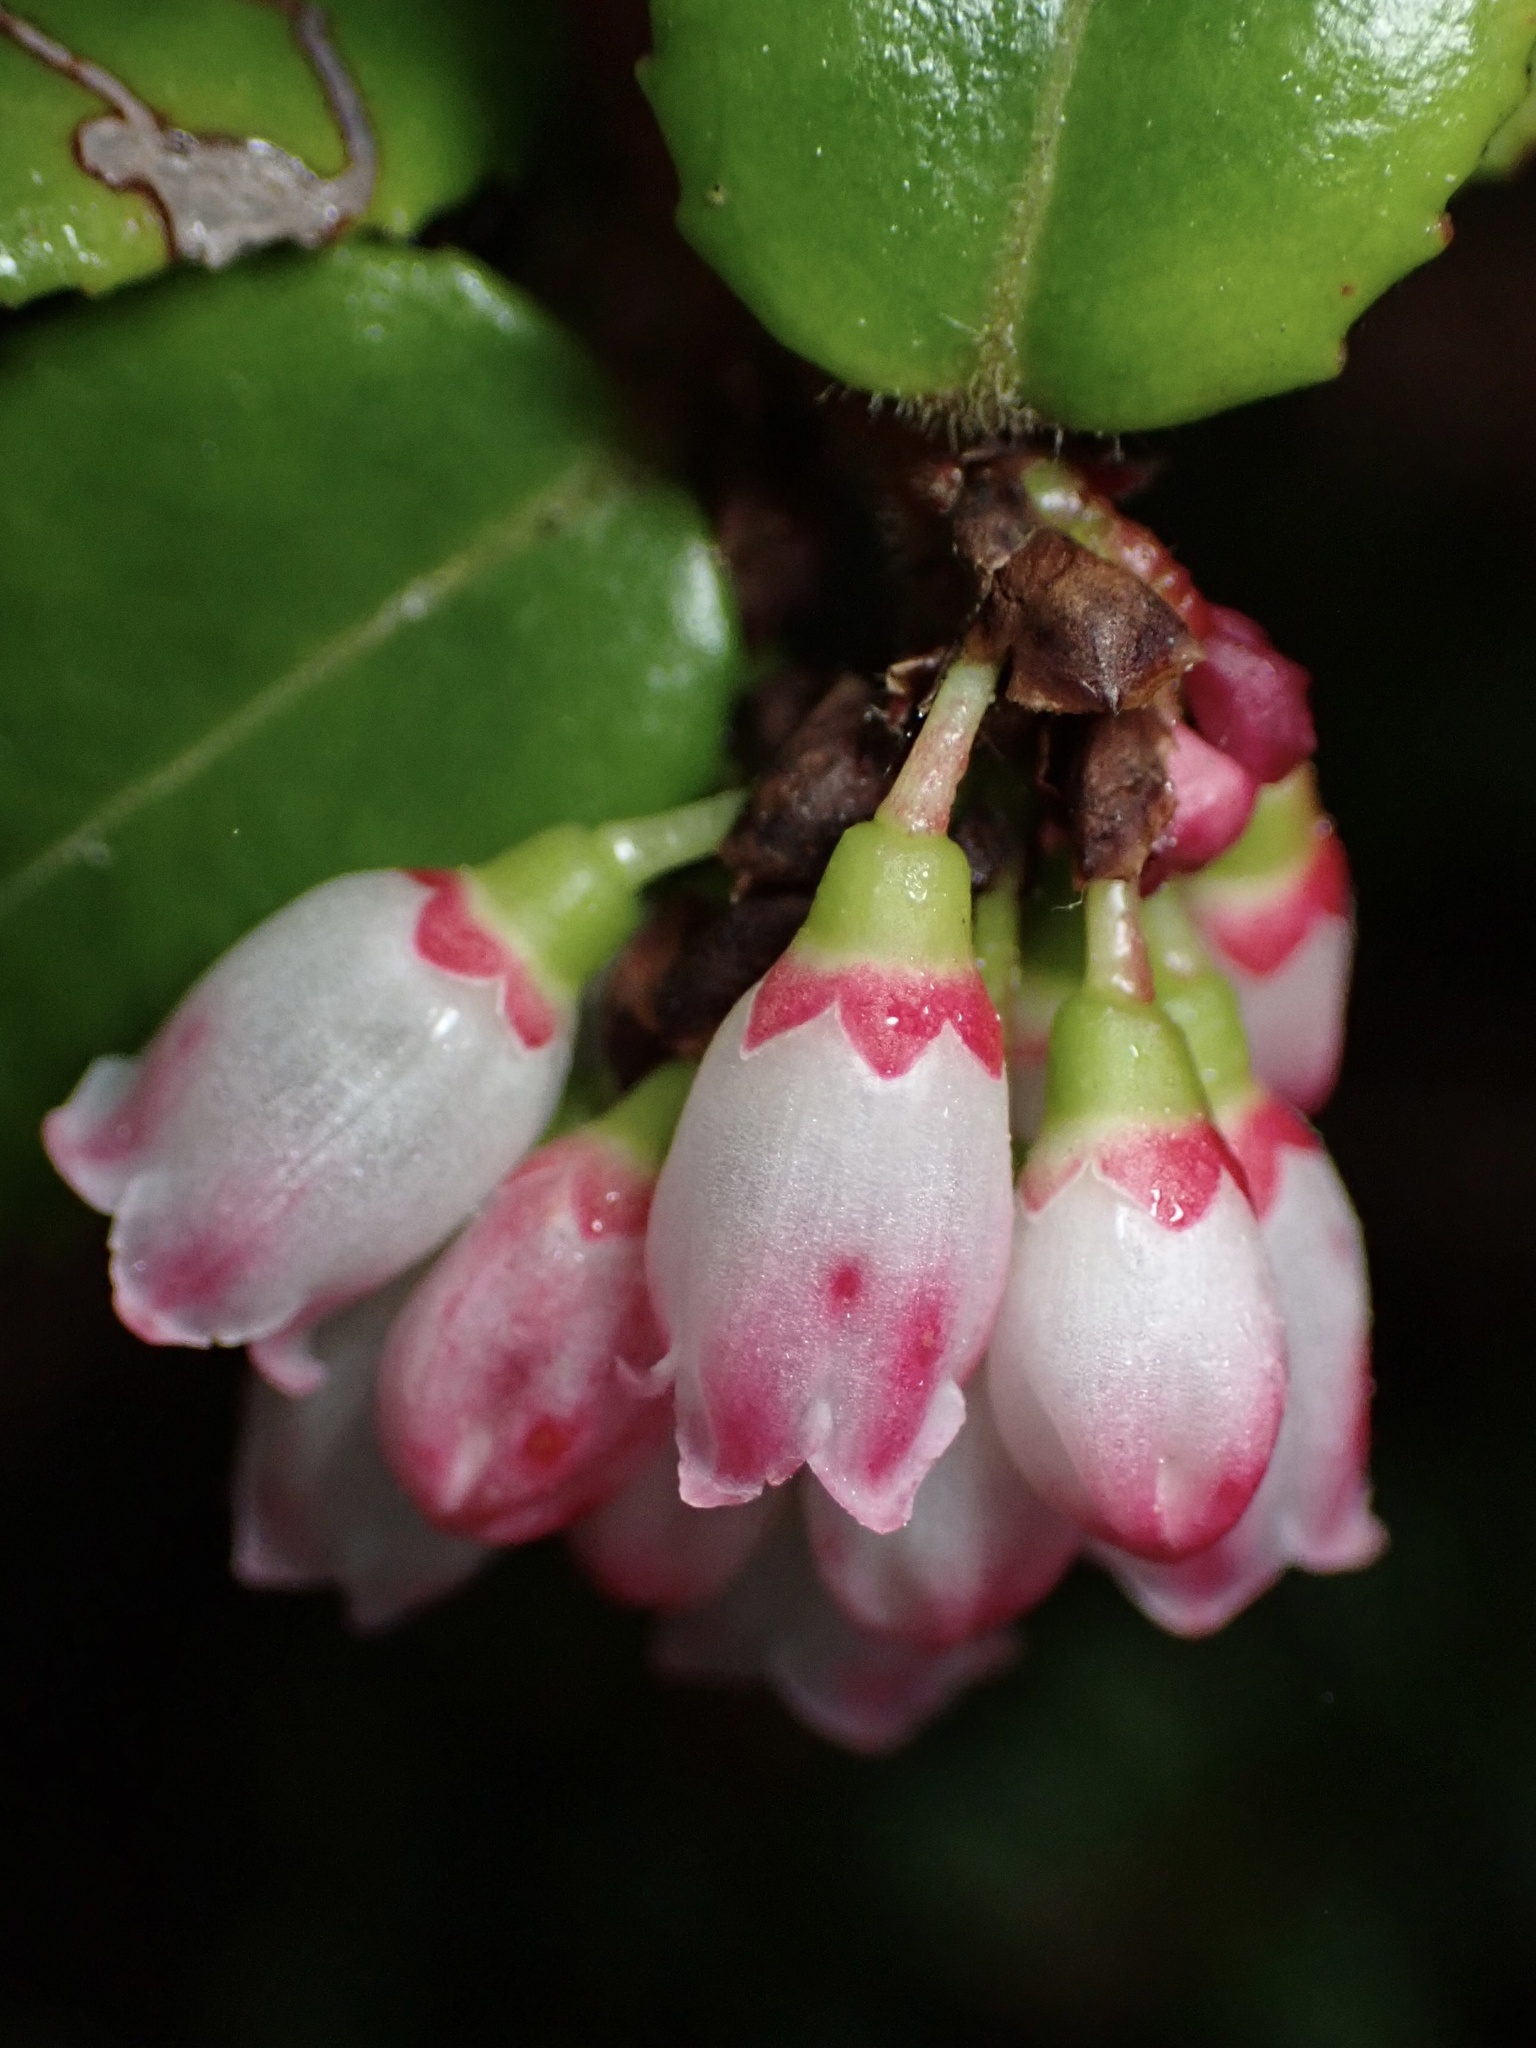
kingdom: Plantae
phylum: Tracheophyta
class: Magnoliopsida
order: Ericales
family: Ericaceae
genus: Vaccinium
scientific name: Vaccinium ovatum
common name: California-huckleberry
